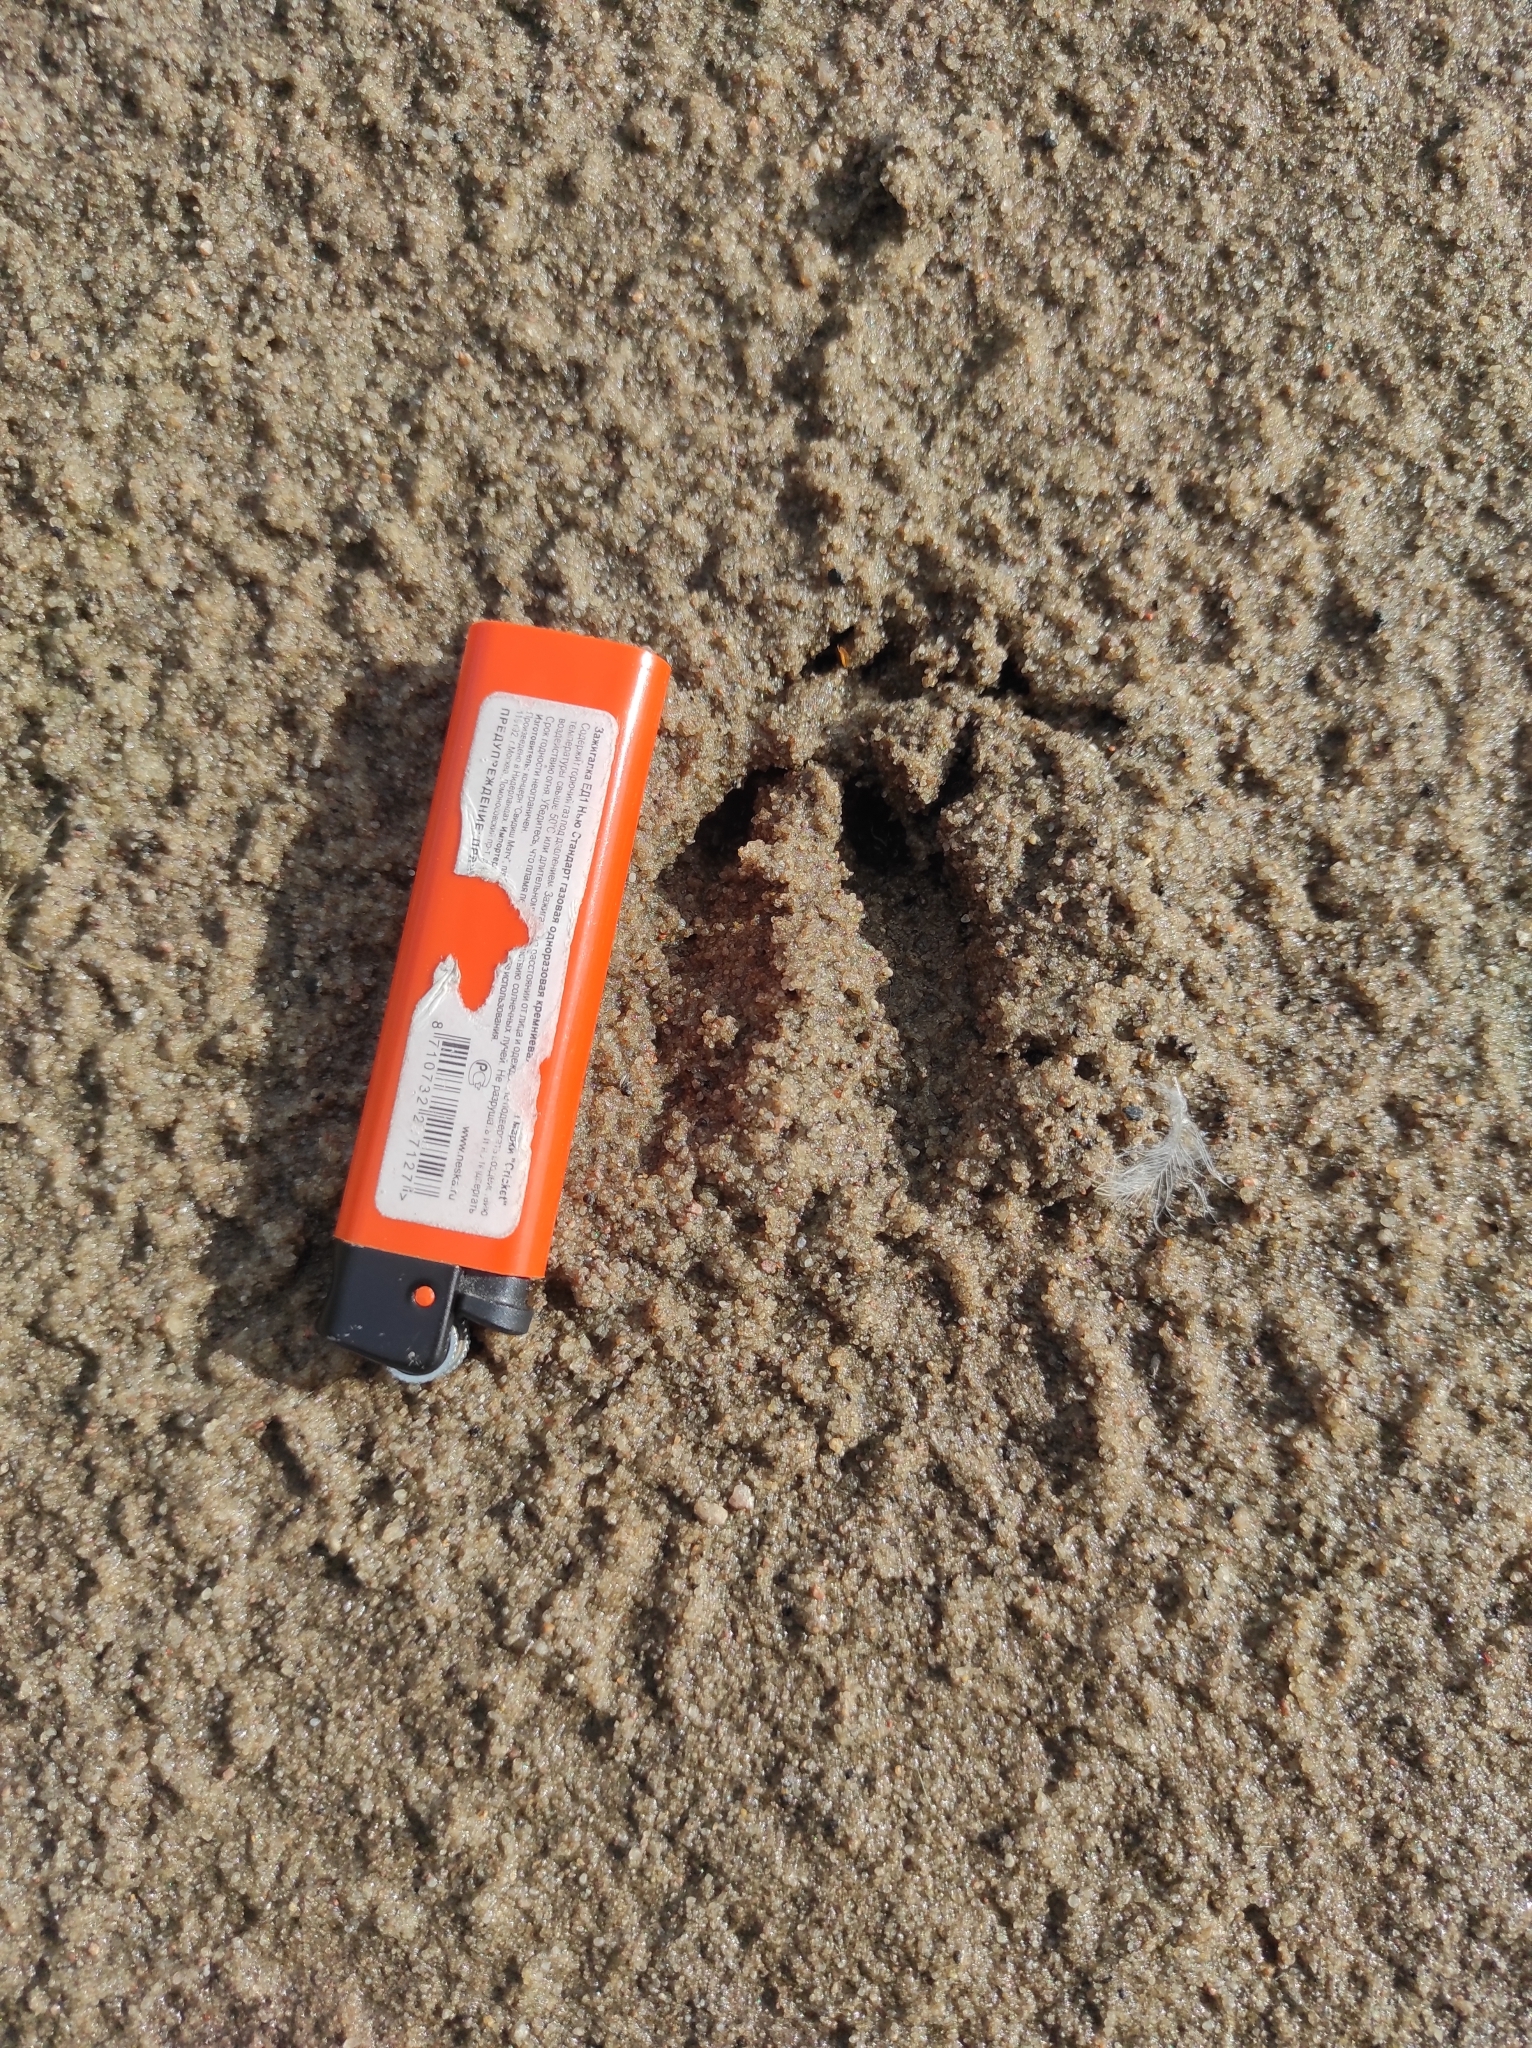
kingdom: Animalia
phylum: Chordata
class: Mammalia
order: Artiodactyla
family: Cervidae
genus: Capreolus
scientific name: Capreolus capreolus
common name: Western roe deer
